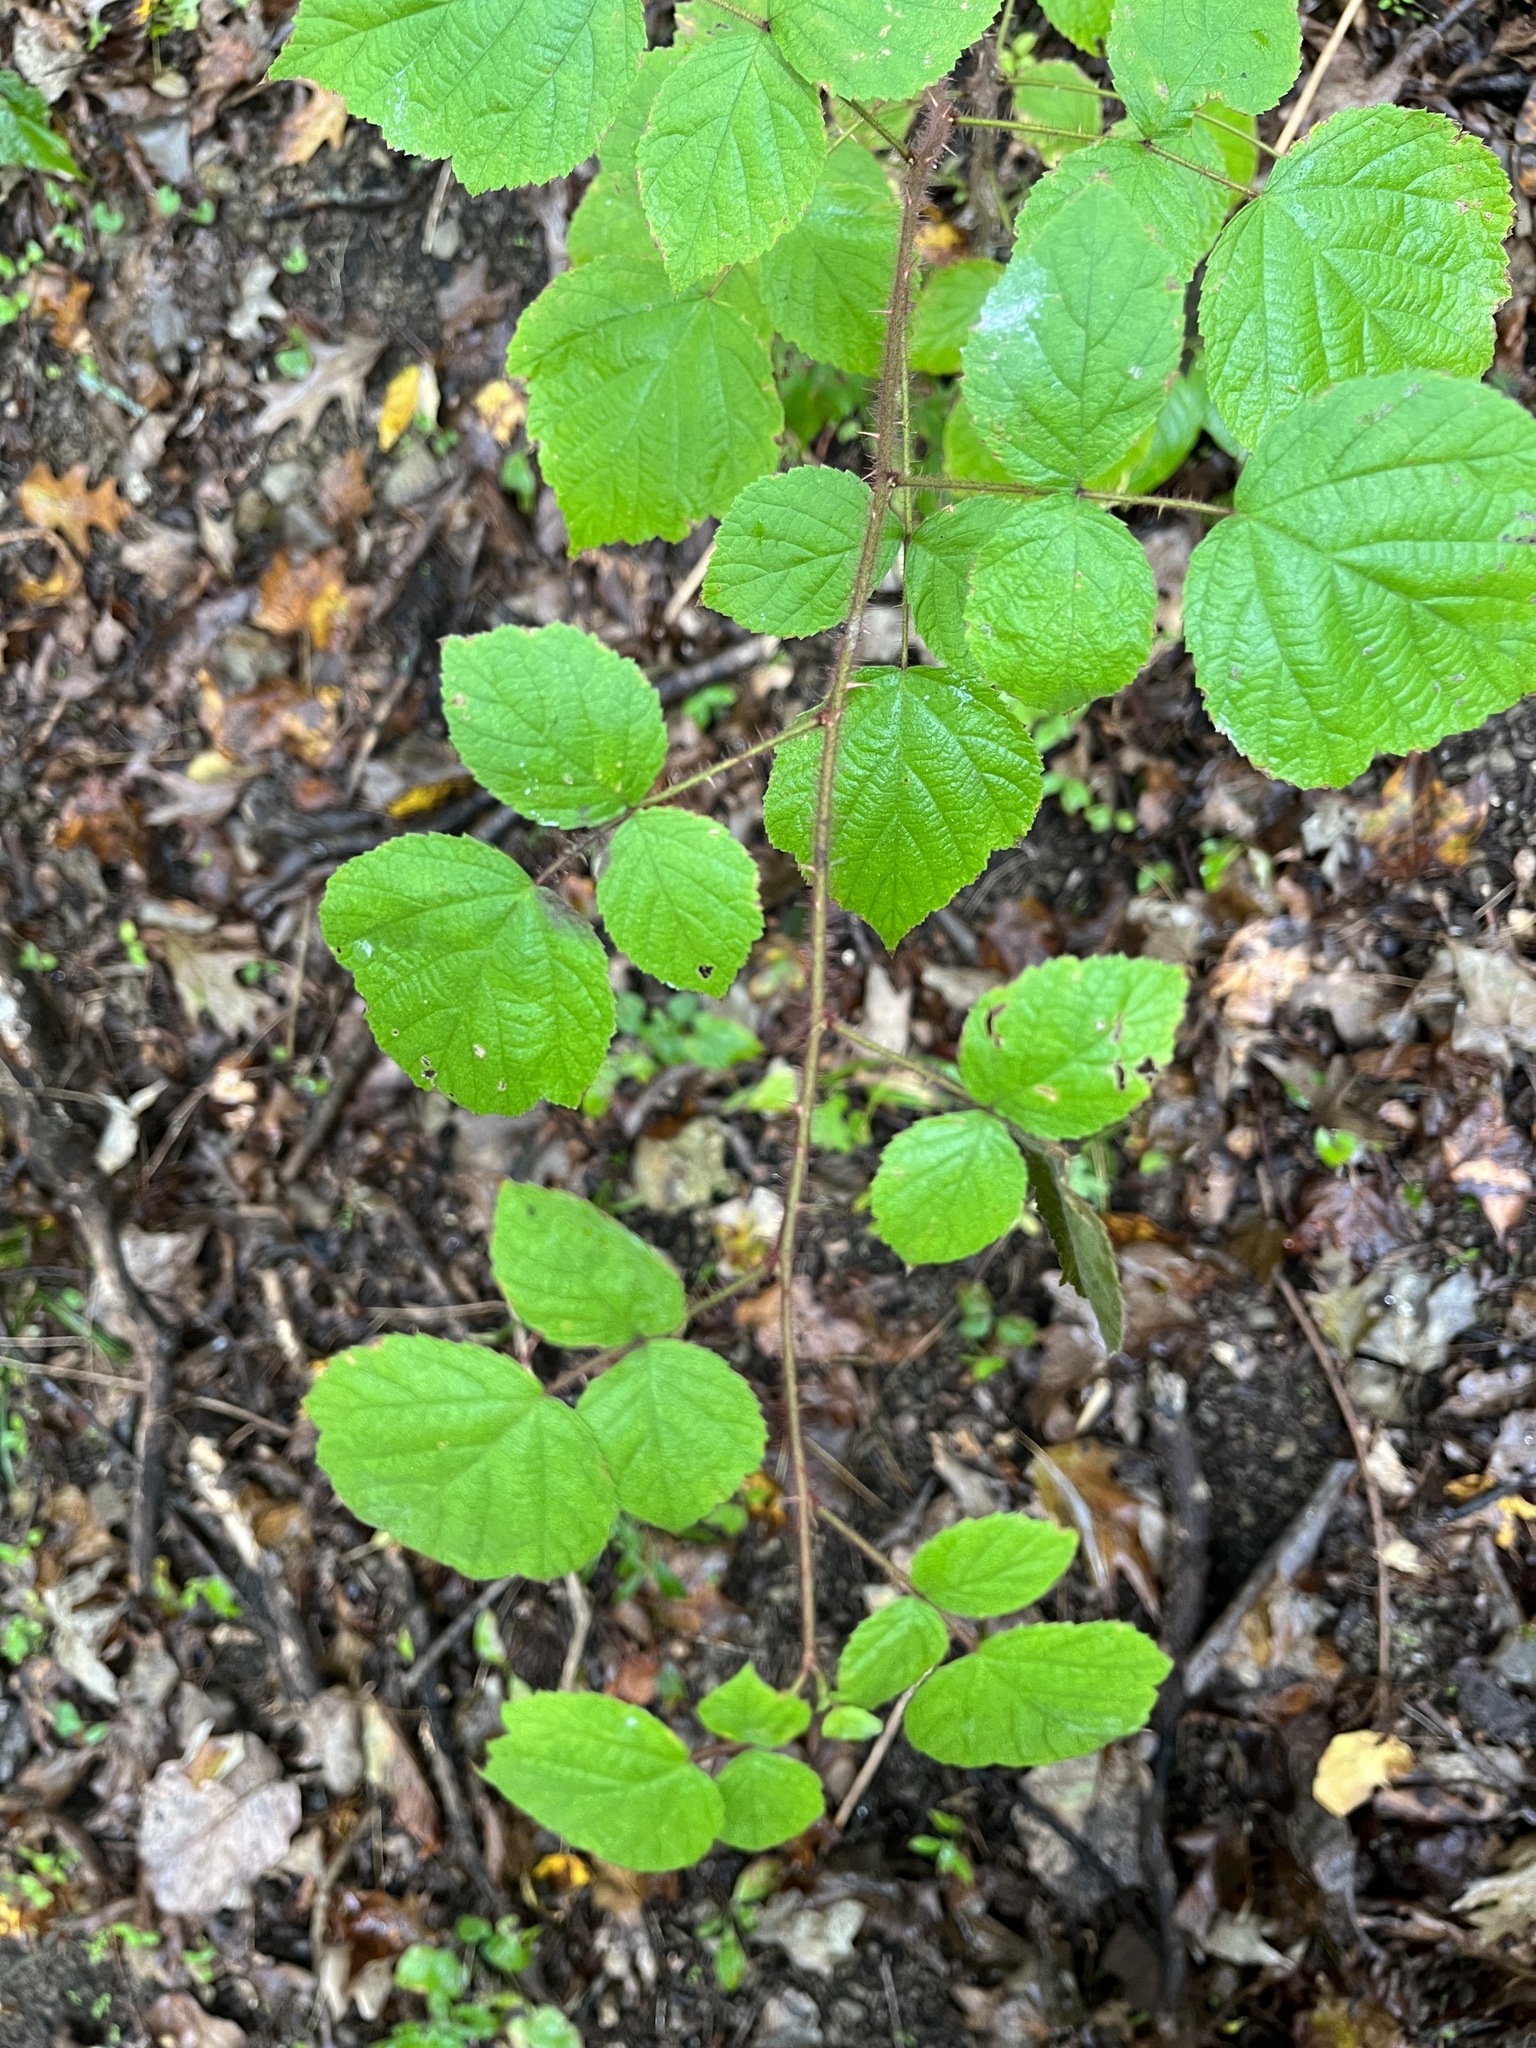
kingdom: Plantae
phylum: Tracheophyta
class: Magnoliopsida
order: Rosales
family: Rosaceae
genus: Rubus
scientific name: Rubus phoenicolasius
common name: Japanese wineberry
